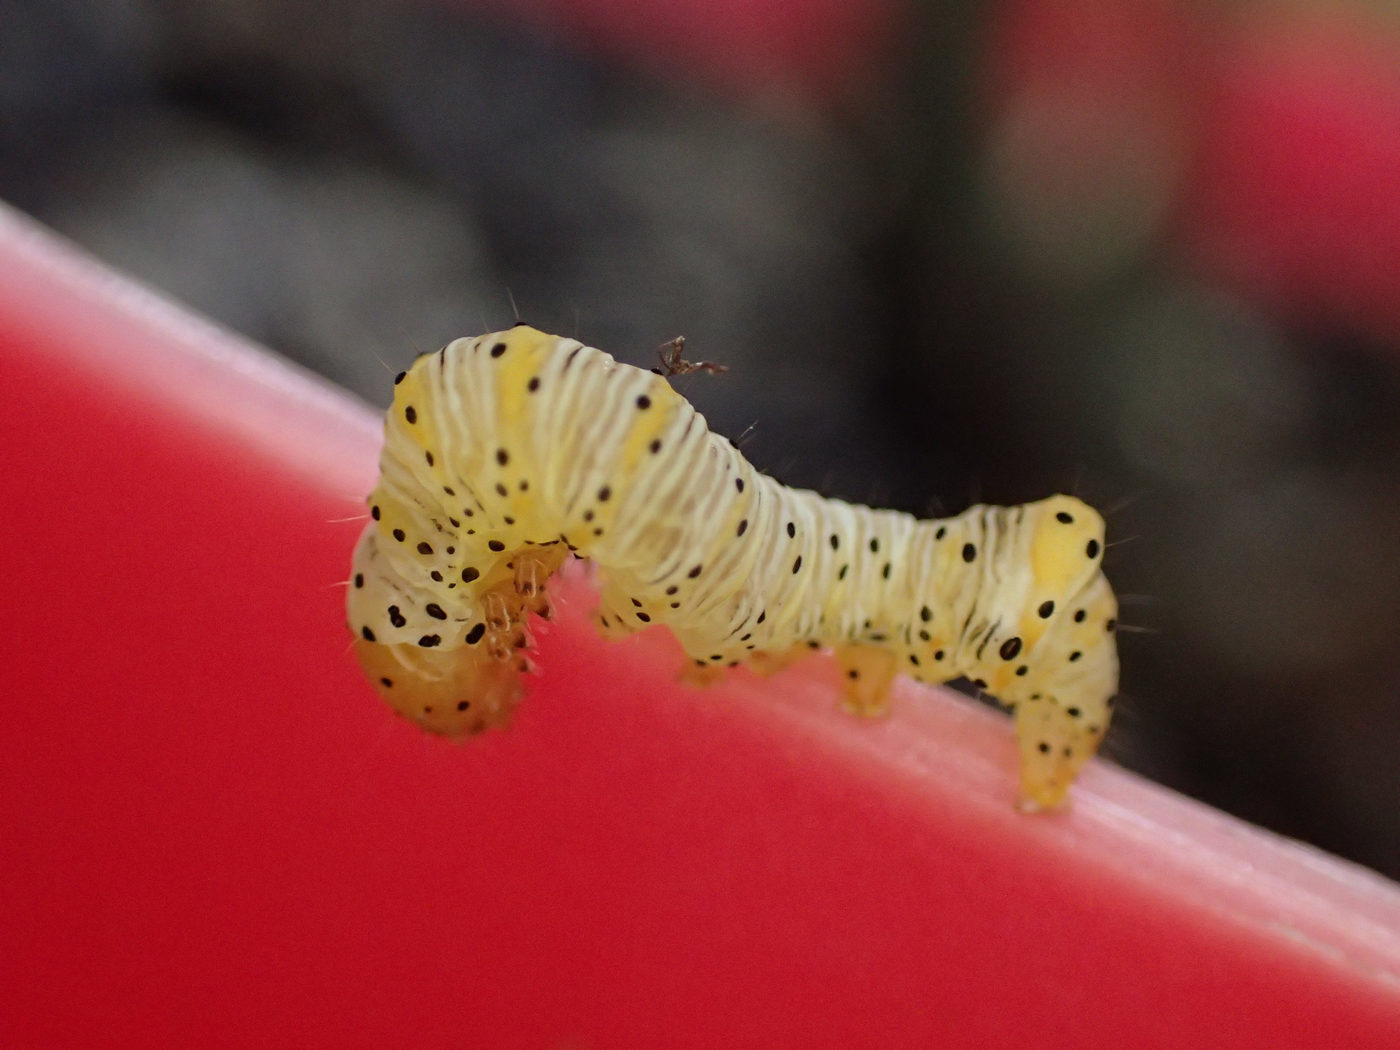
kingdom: Animalia
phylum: Arthropoda
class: Insecta
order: Lepidoptera
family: Noctuidae
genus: Eudryas
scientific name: Eudryas grata
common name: Beautiful wood-nymph
